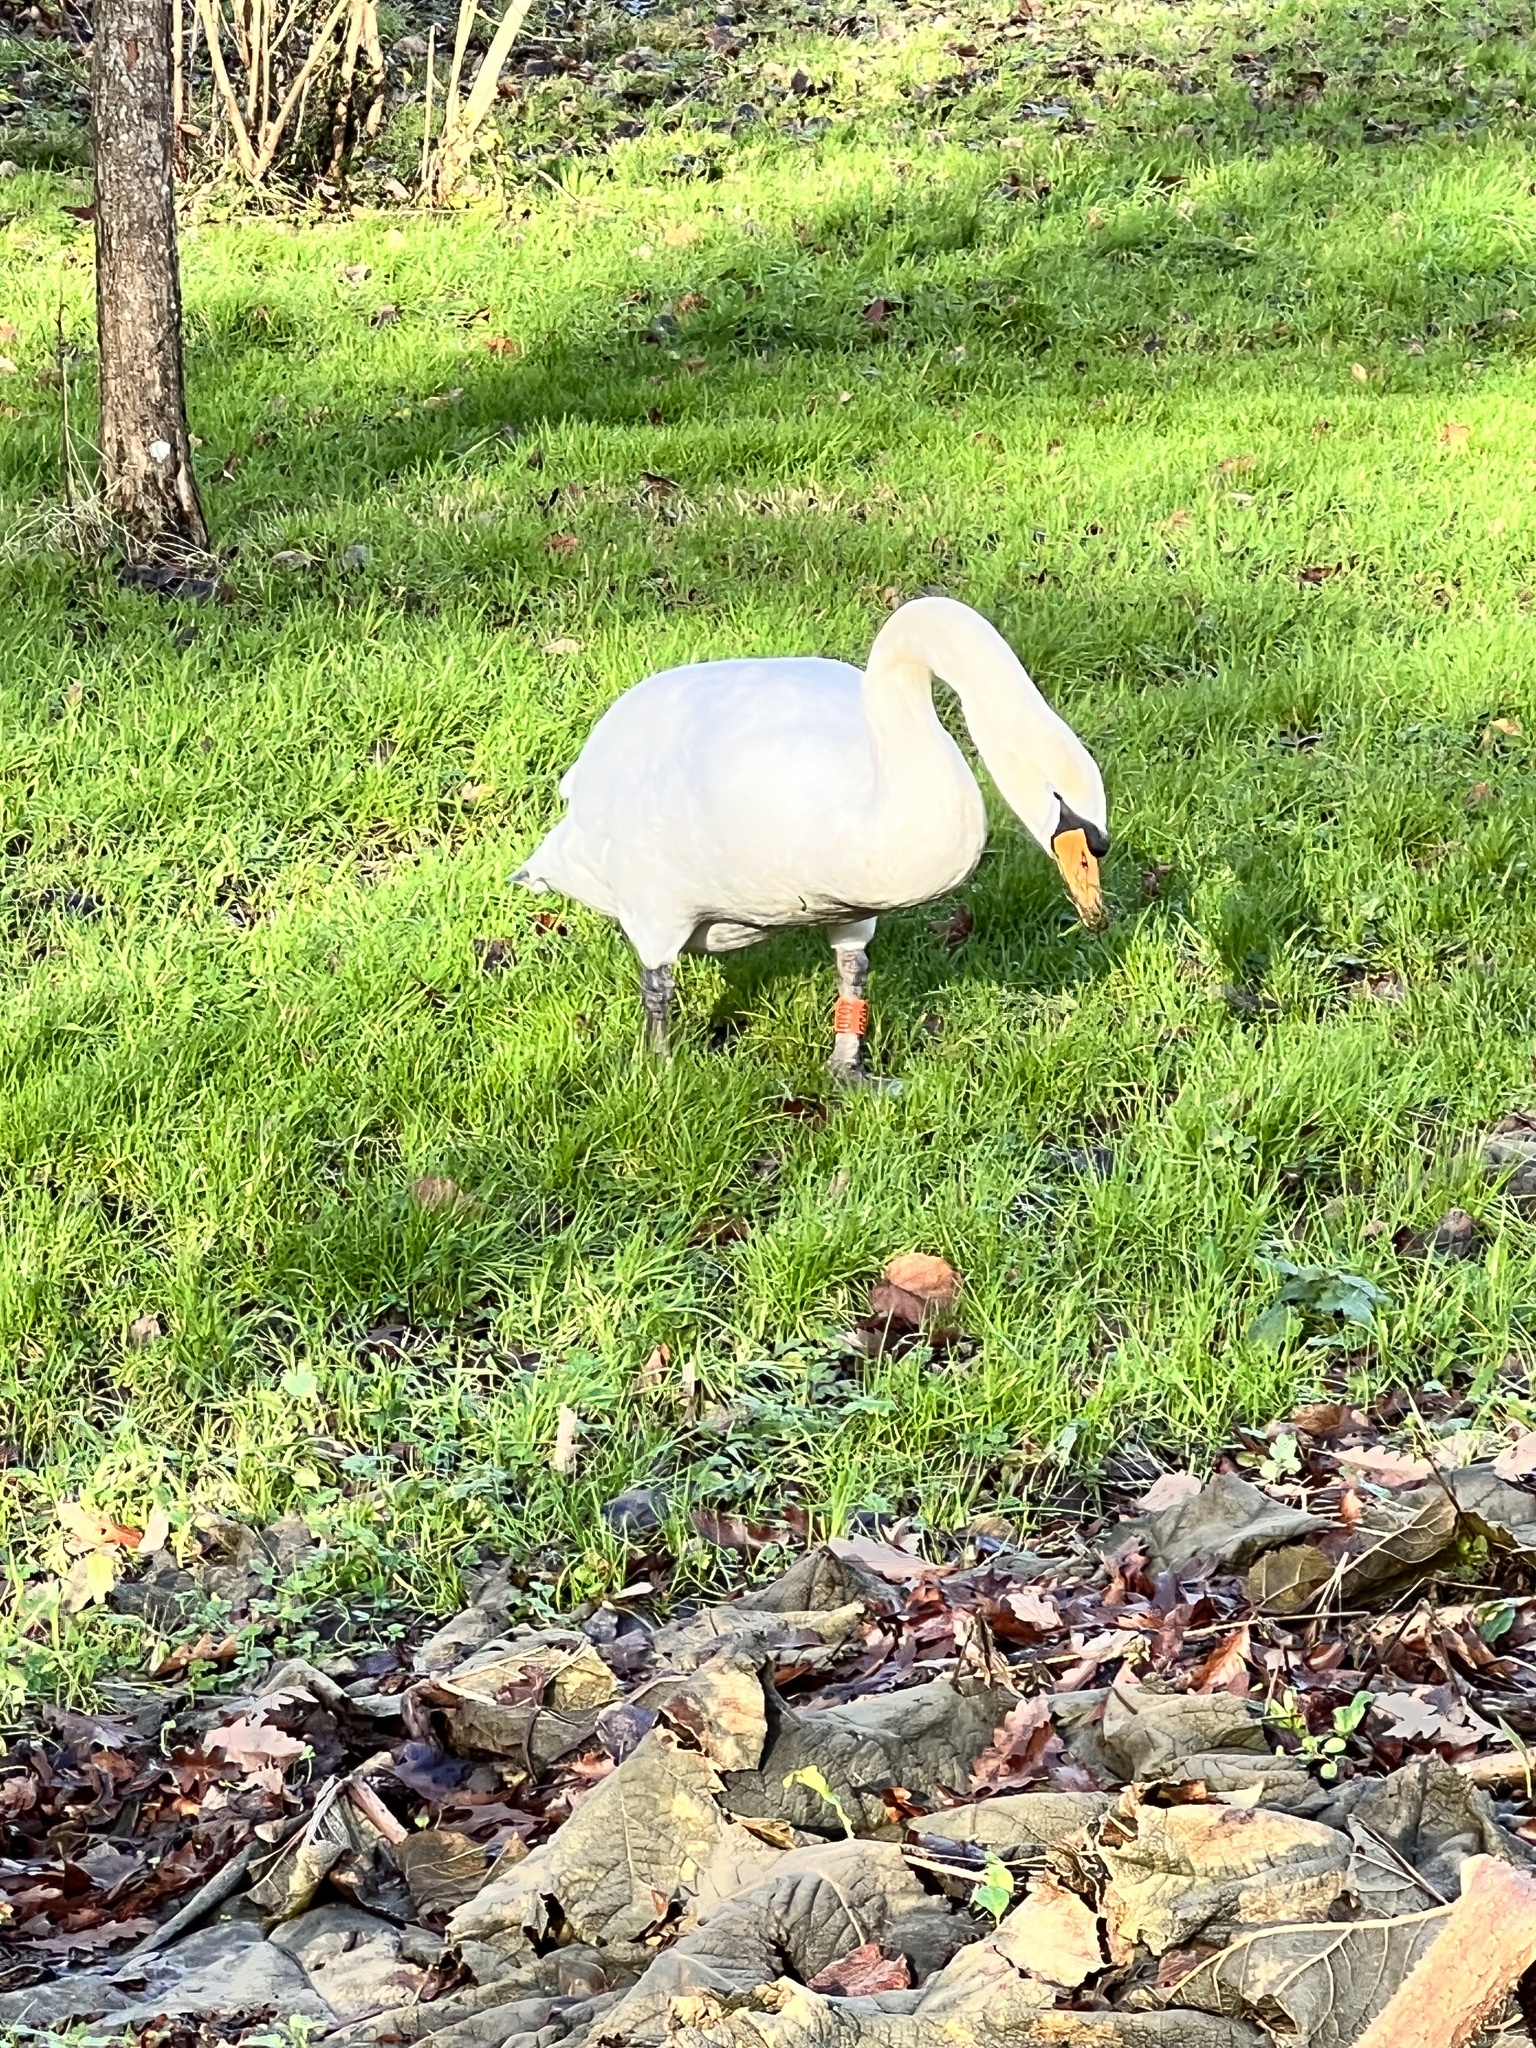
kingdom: Animalia
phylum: Chordata
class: Aves
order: Anseriformes
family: Anatidae
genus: Cygnus
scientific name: Cygnus olor
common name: Mute swan
